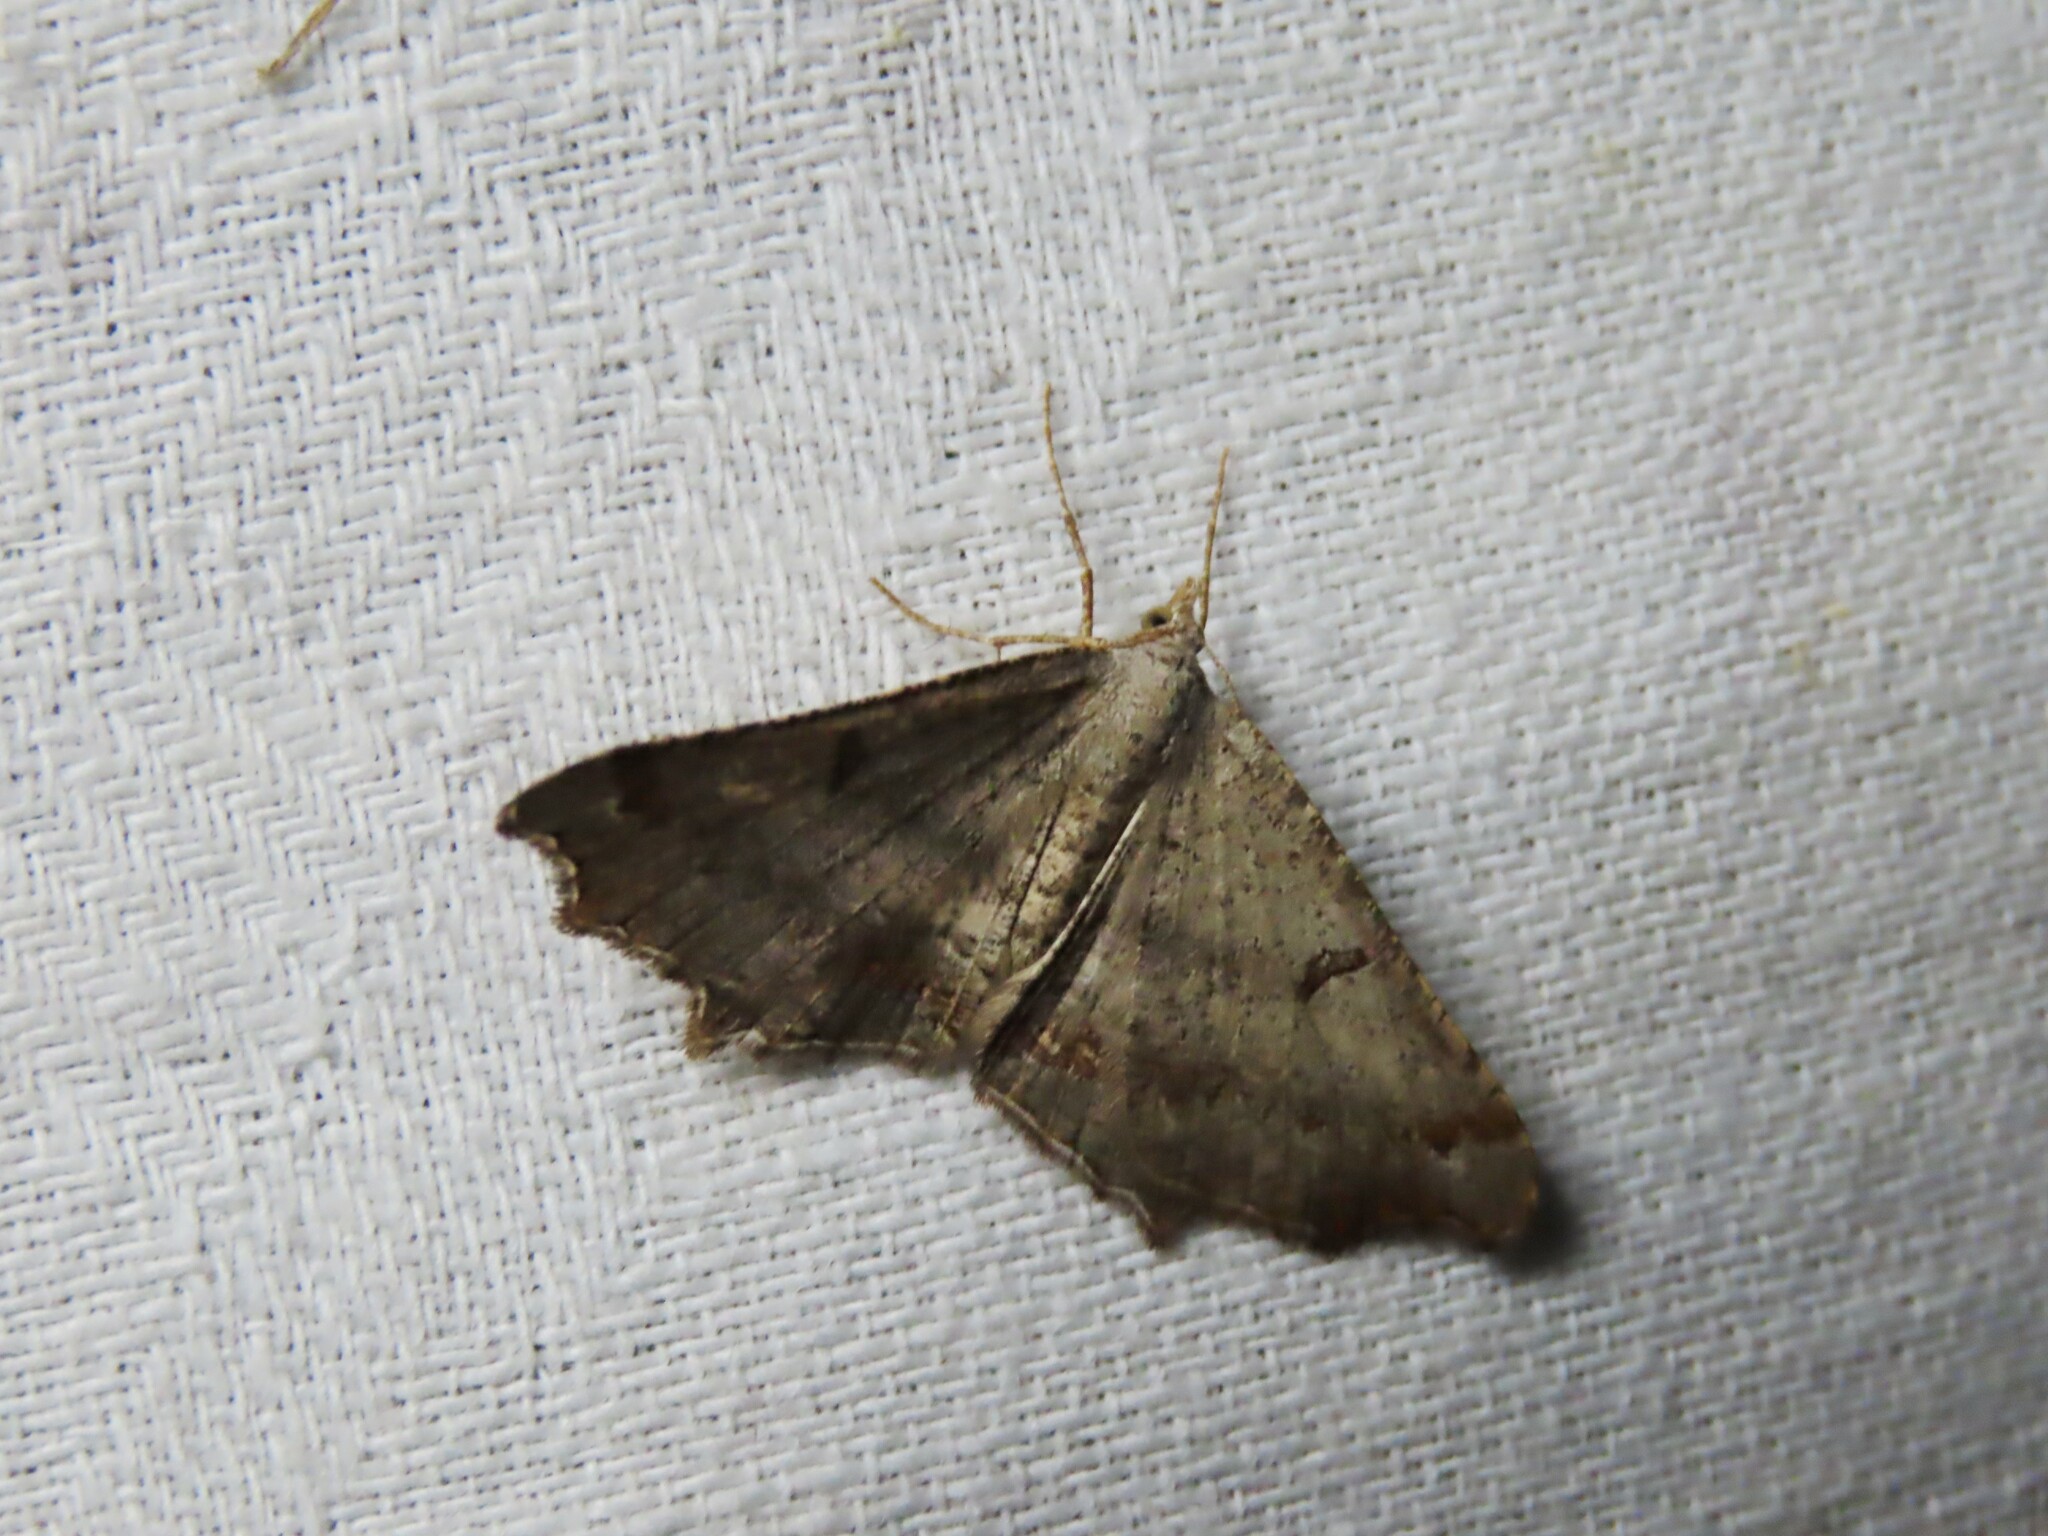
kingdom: Animalia
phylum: Arthropoda
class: Insecta
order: Lepidoptera
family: Geometridae
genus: Dissomorphia
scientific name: Dissomorphia australiaria
